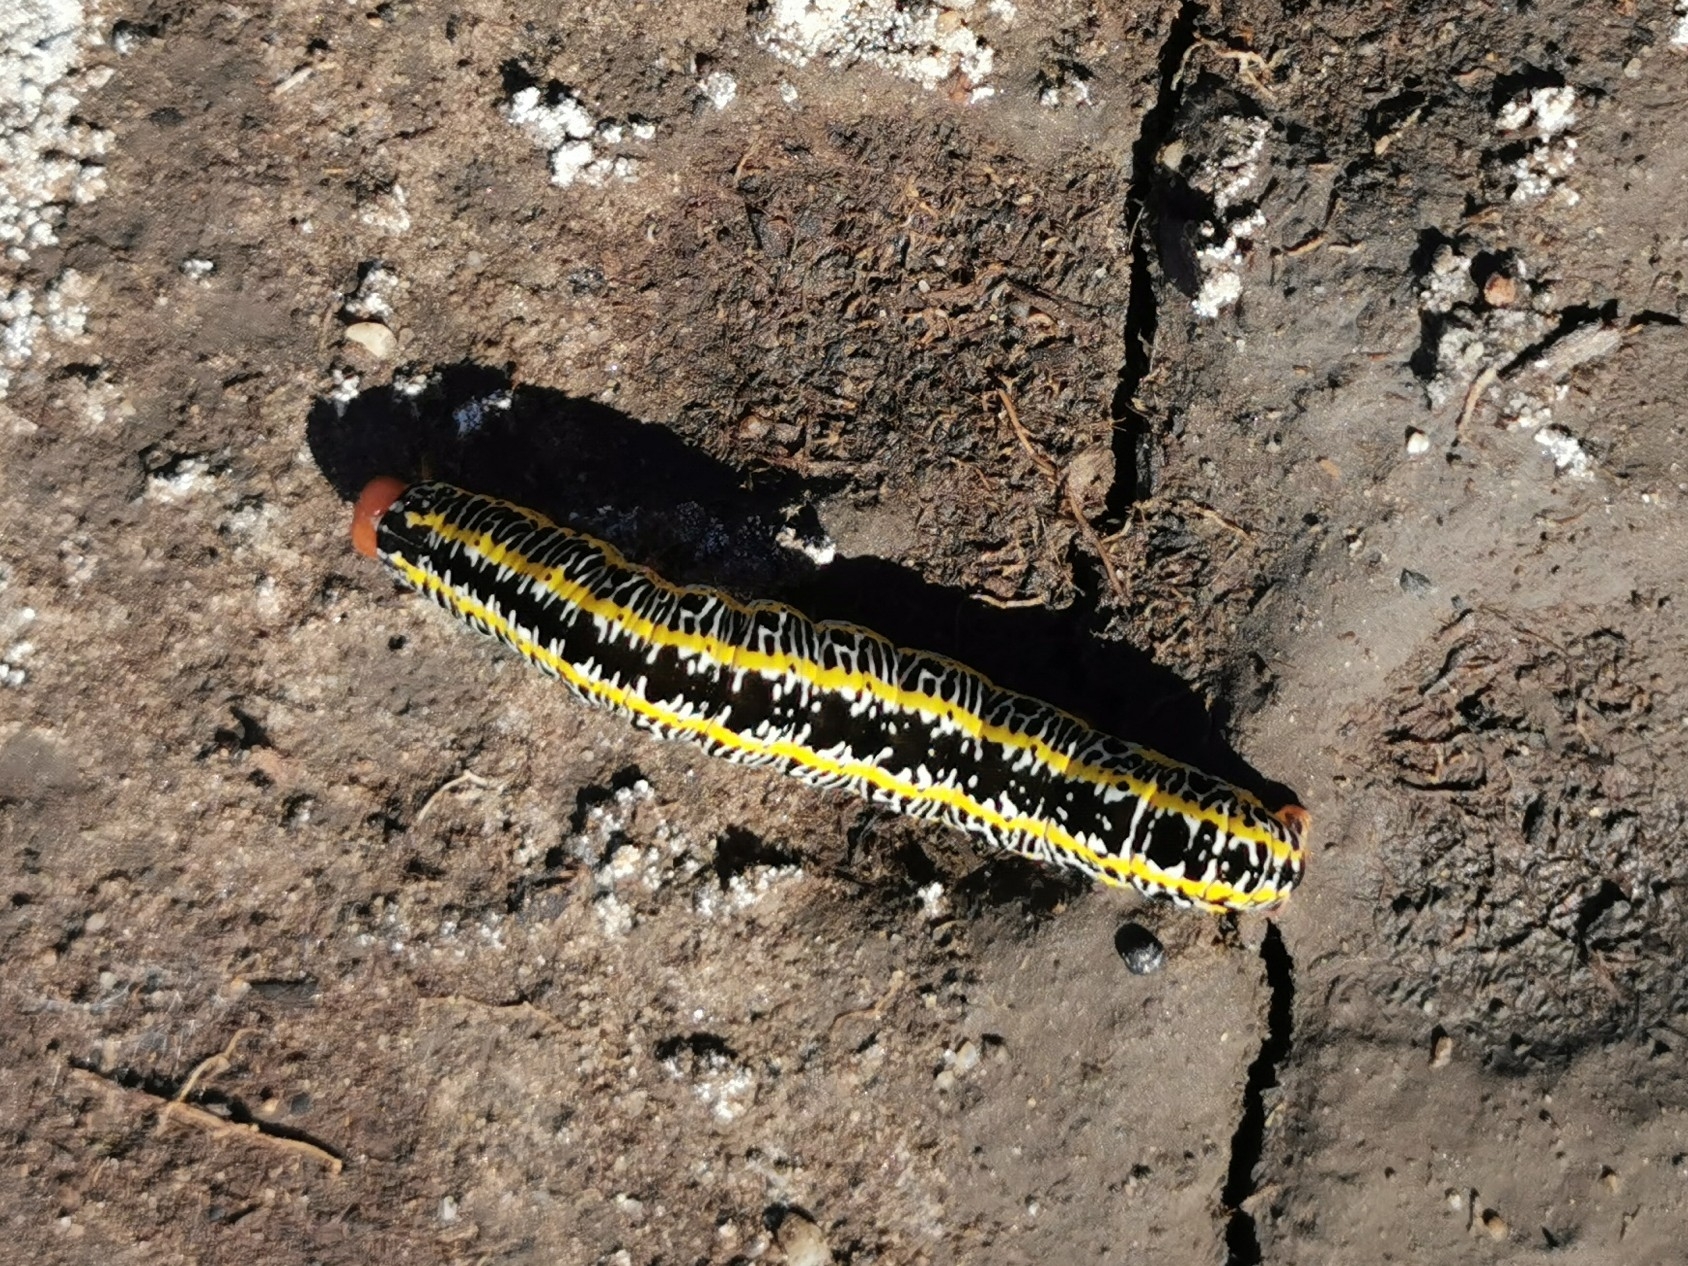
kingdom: Animalia
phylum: Arthropoda
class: Insecta
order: Lepidoptera
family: Noctuidae
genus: Melanchra
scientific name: Melanchra picta
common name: Zebra caterpillar
